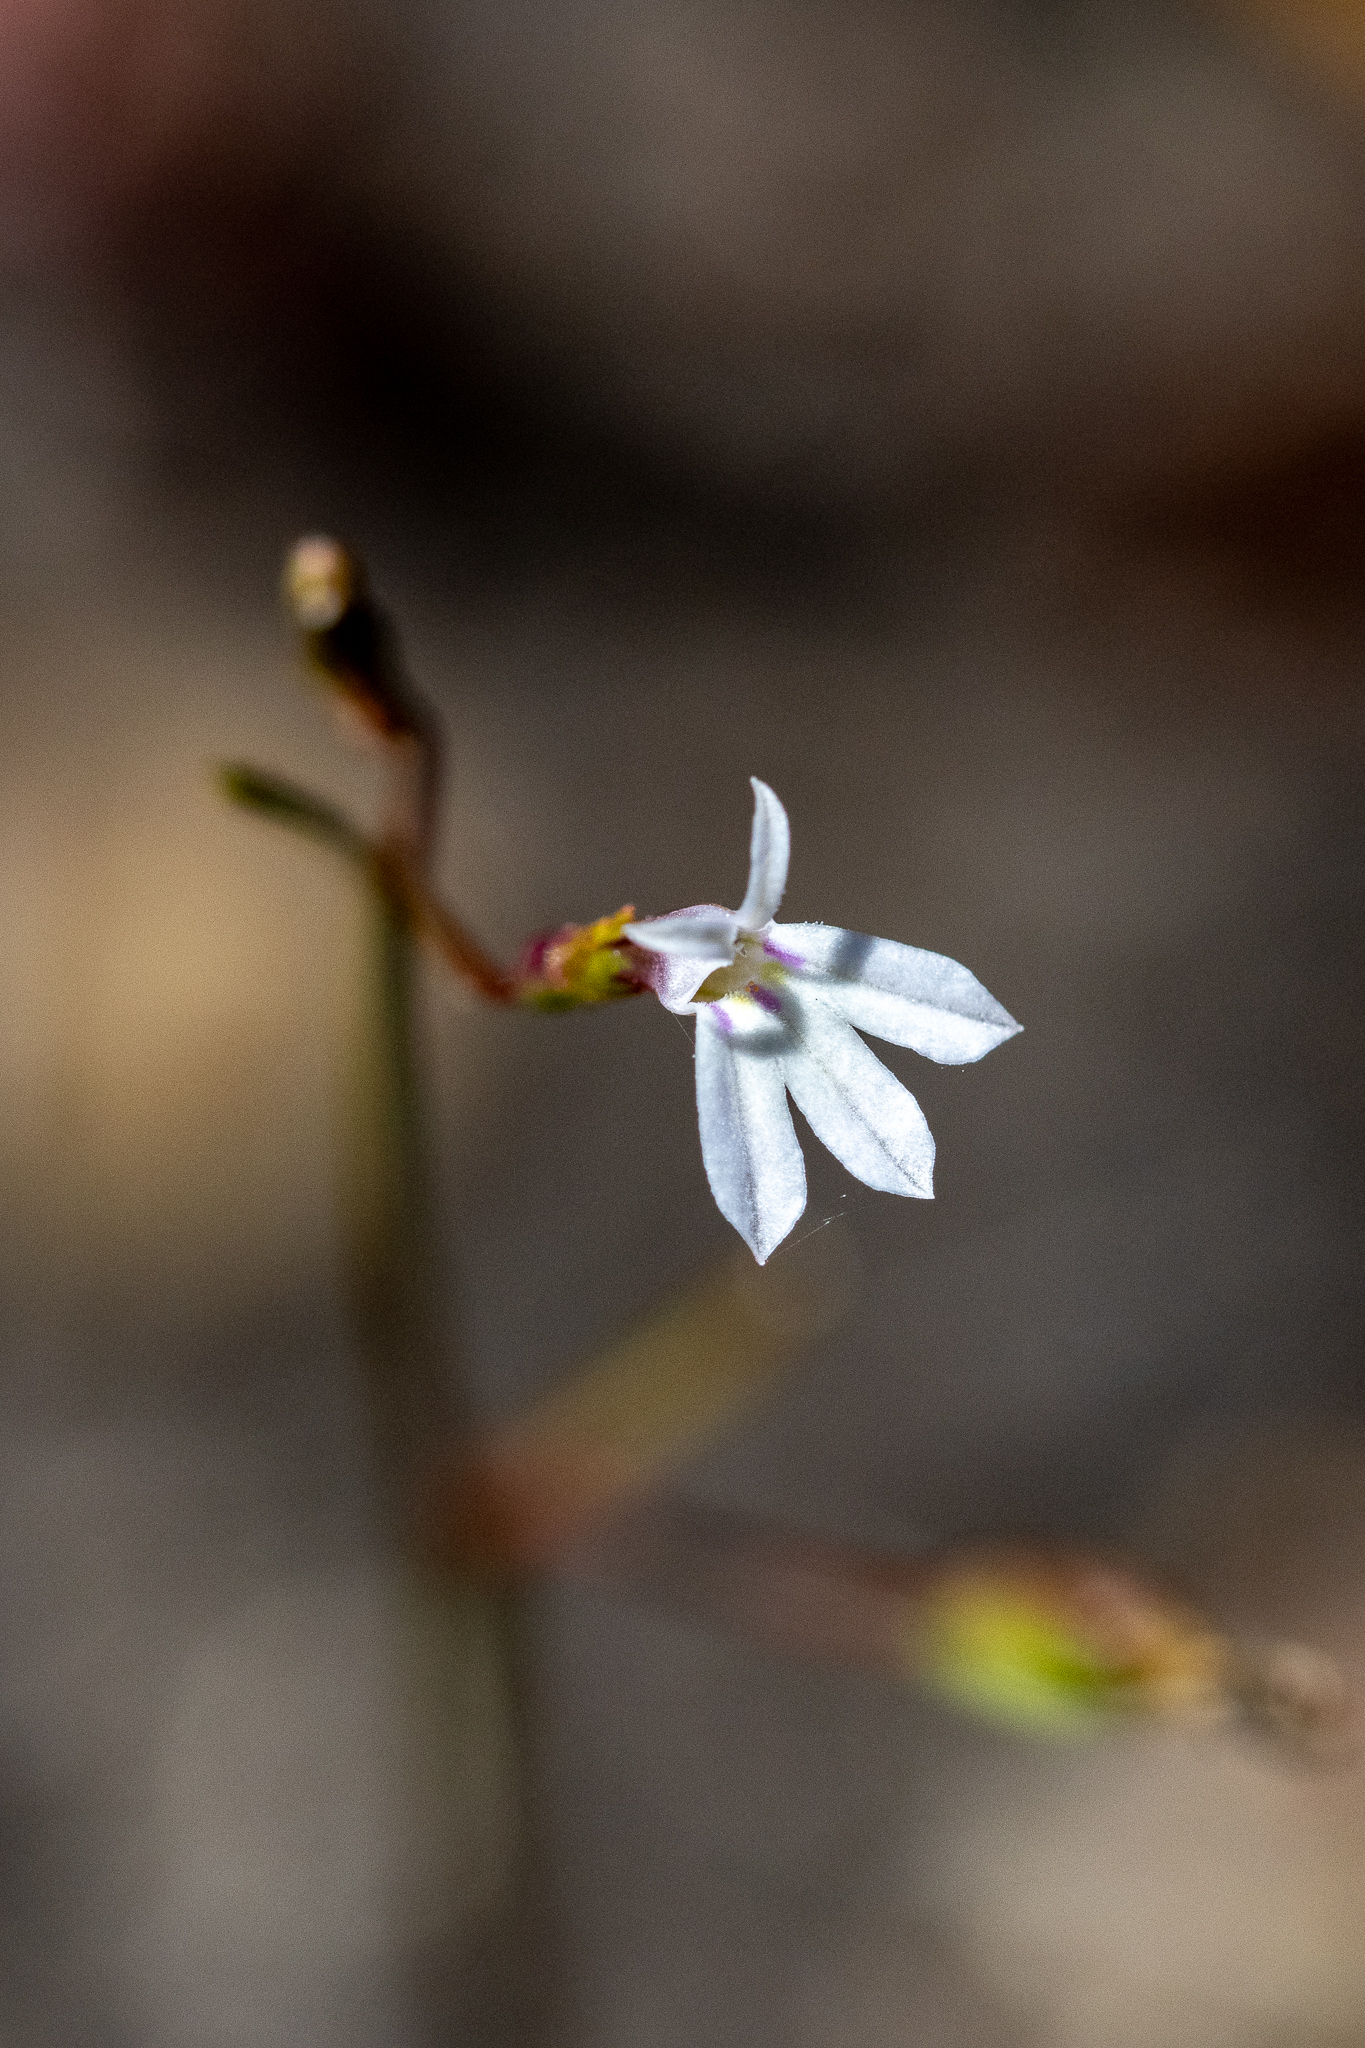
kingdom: Plantae
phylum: Tracheophyta
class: Magnoliopsida
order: Asterales
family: Campanulaceae
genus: Wimmerella
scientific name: Wimmerella arabidea
